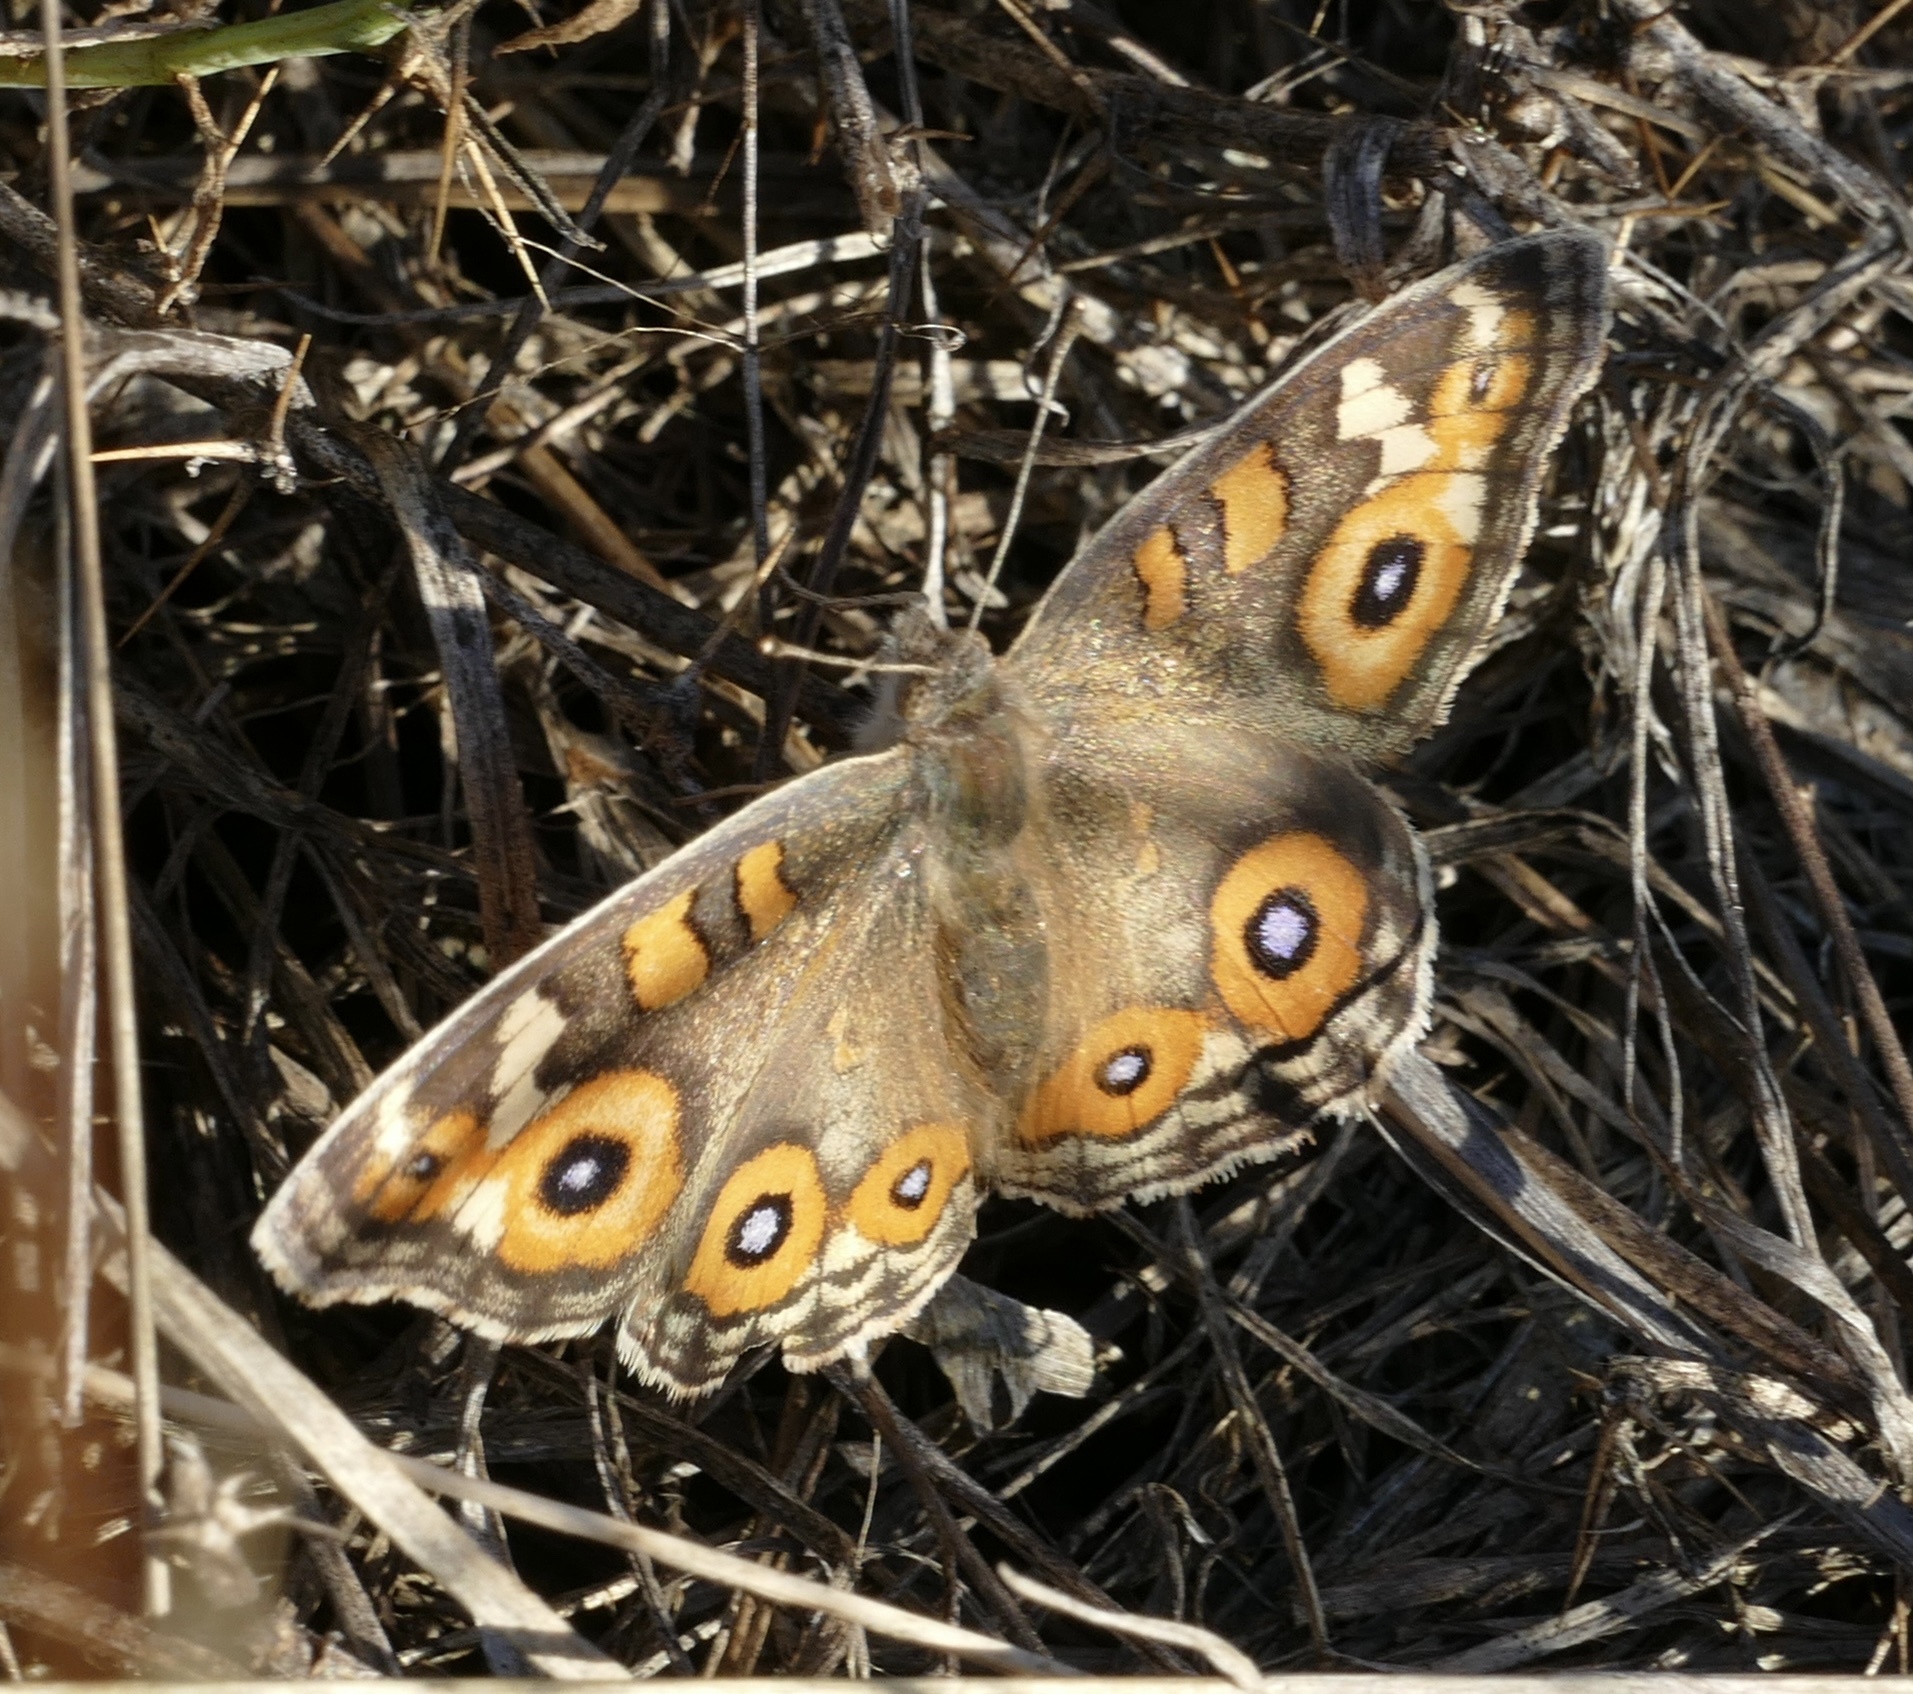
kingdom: Animalia
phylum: Arthropoda
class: Insecta
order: Lepidoptera
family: Nymphalidae
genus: Junonia
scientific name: Junonia villida
